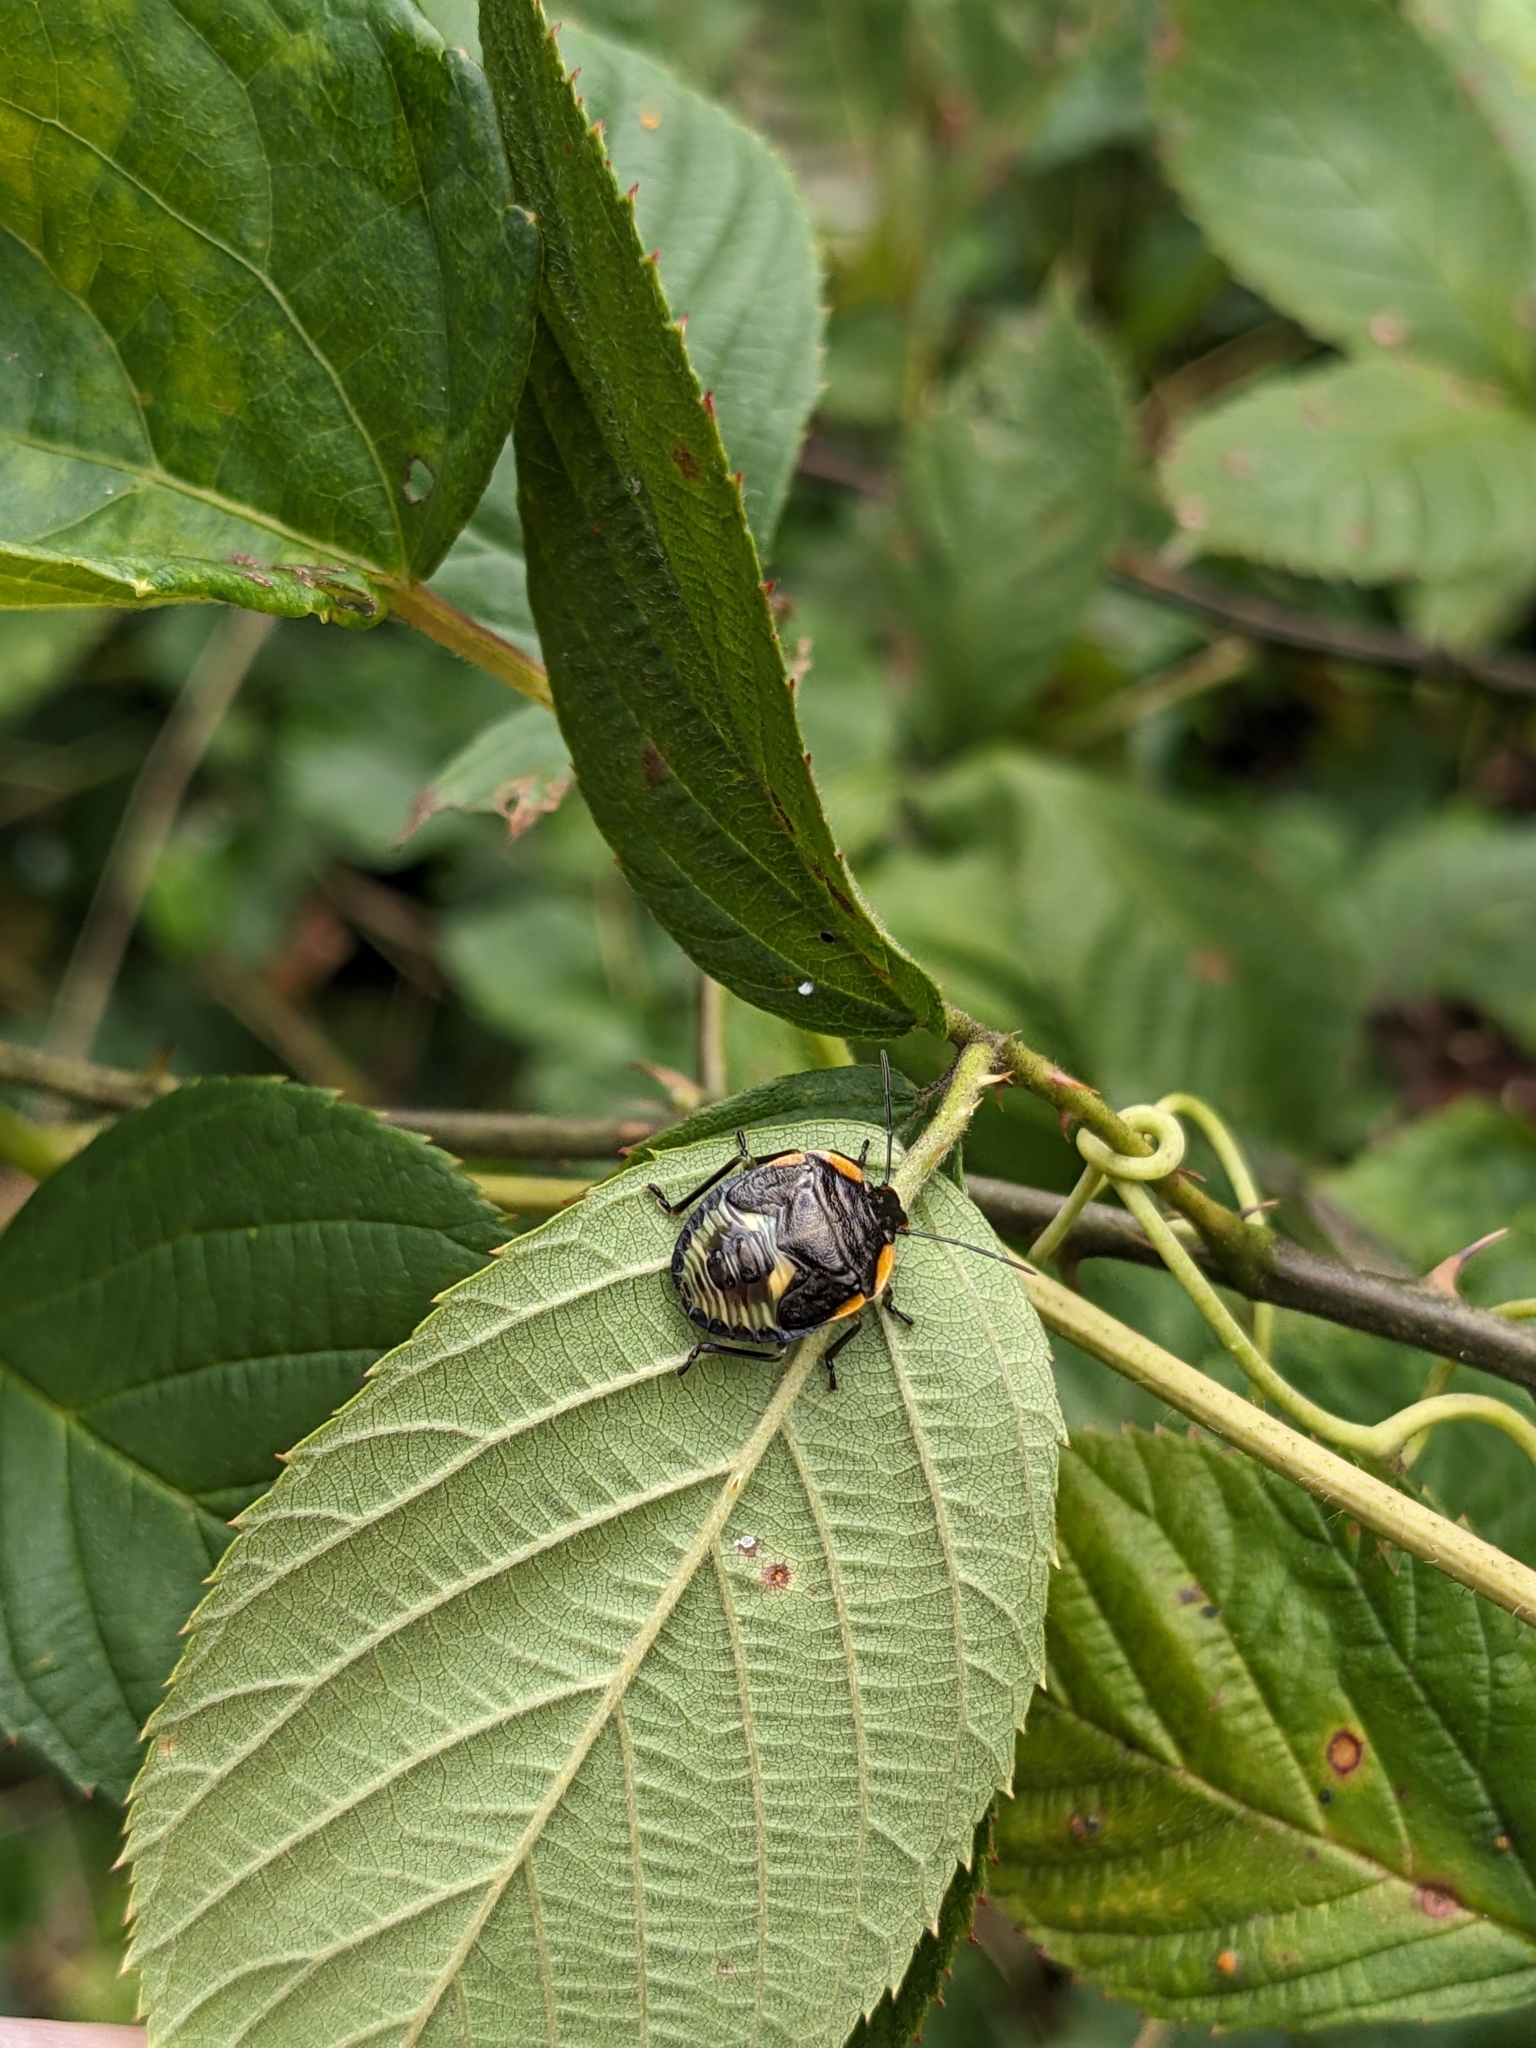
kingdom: Animalia
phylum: Arthropoda
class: Insecta
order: Hemiptera
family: Pentatomidae
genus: Chinavia
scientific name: Chinavia hilaris
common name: Green stink bug
